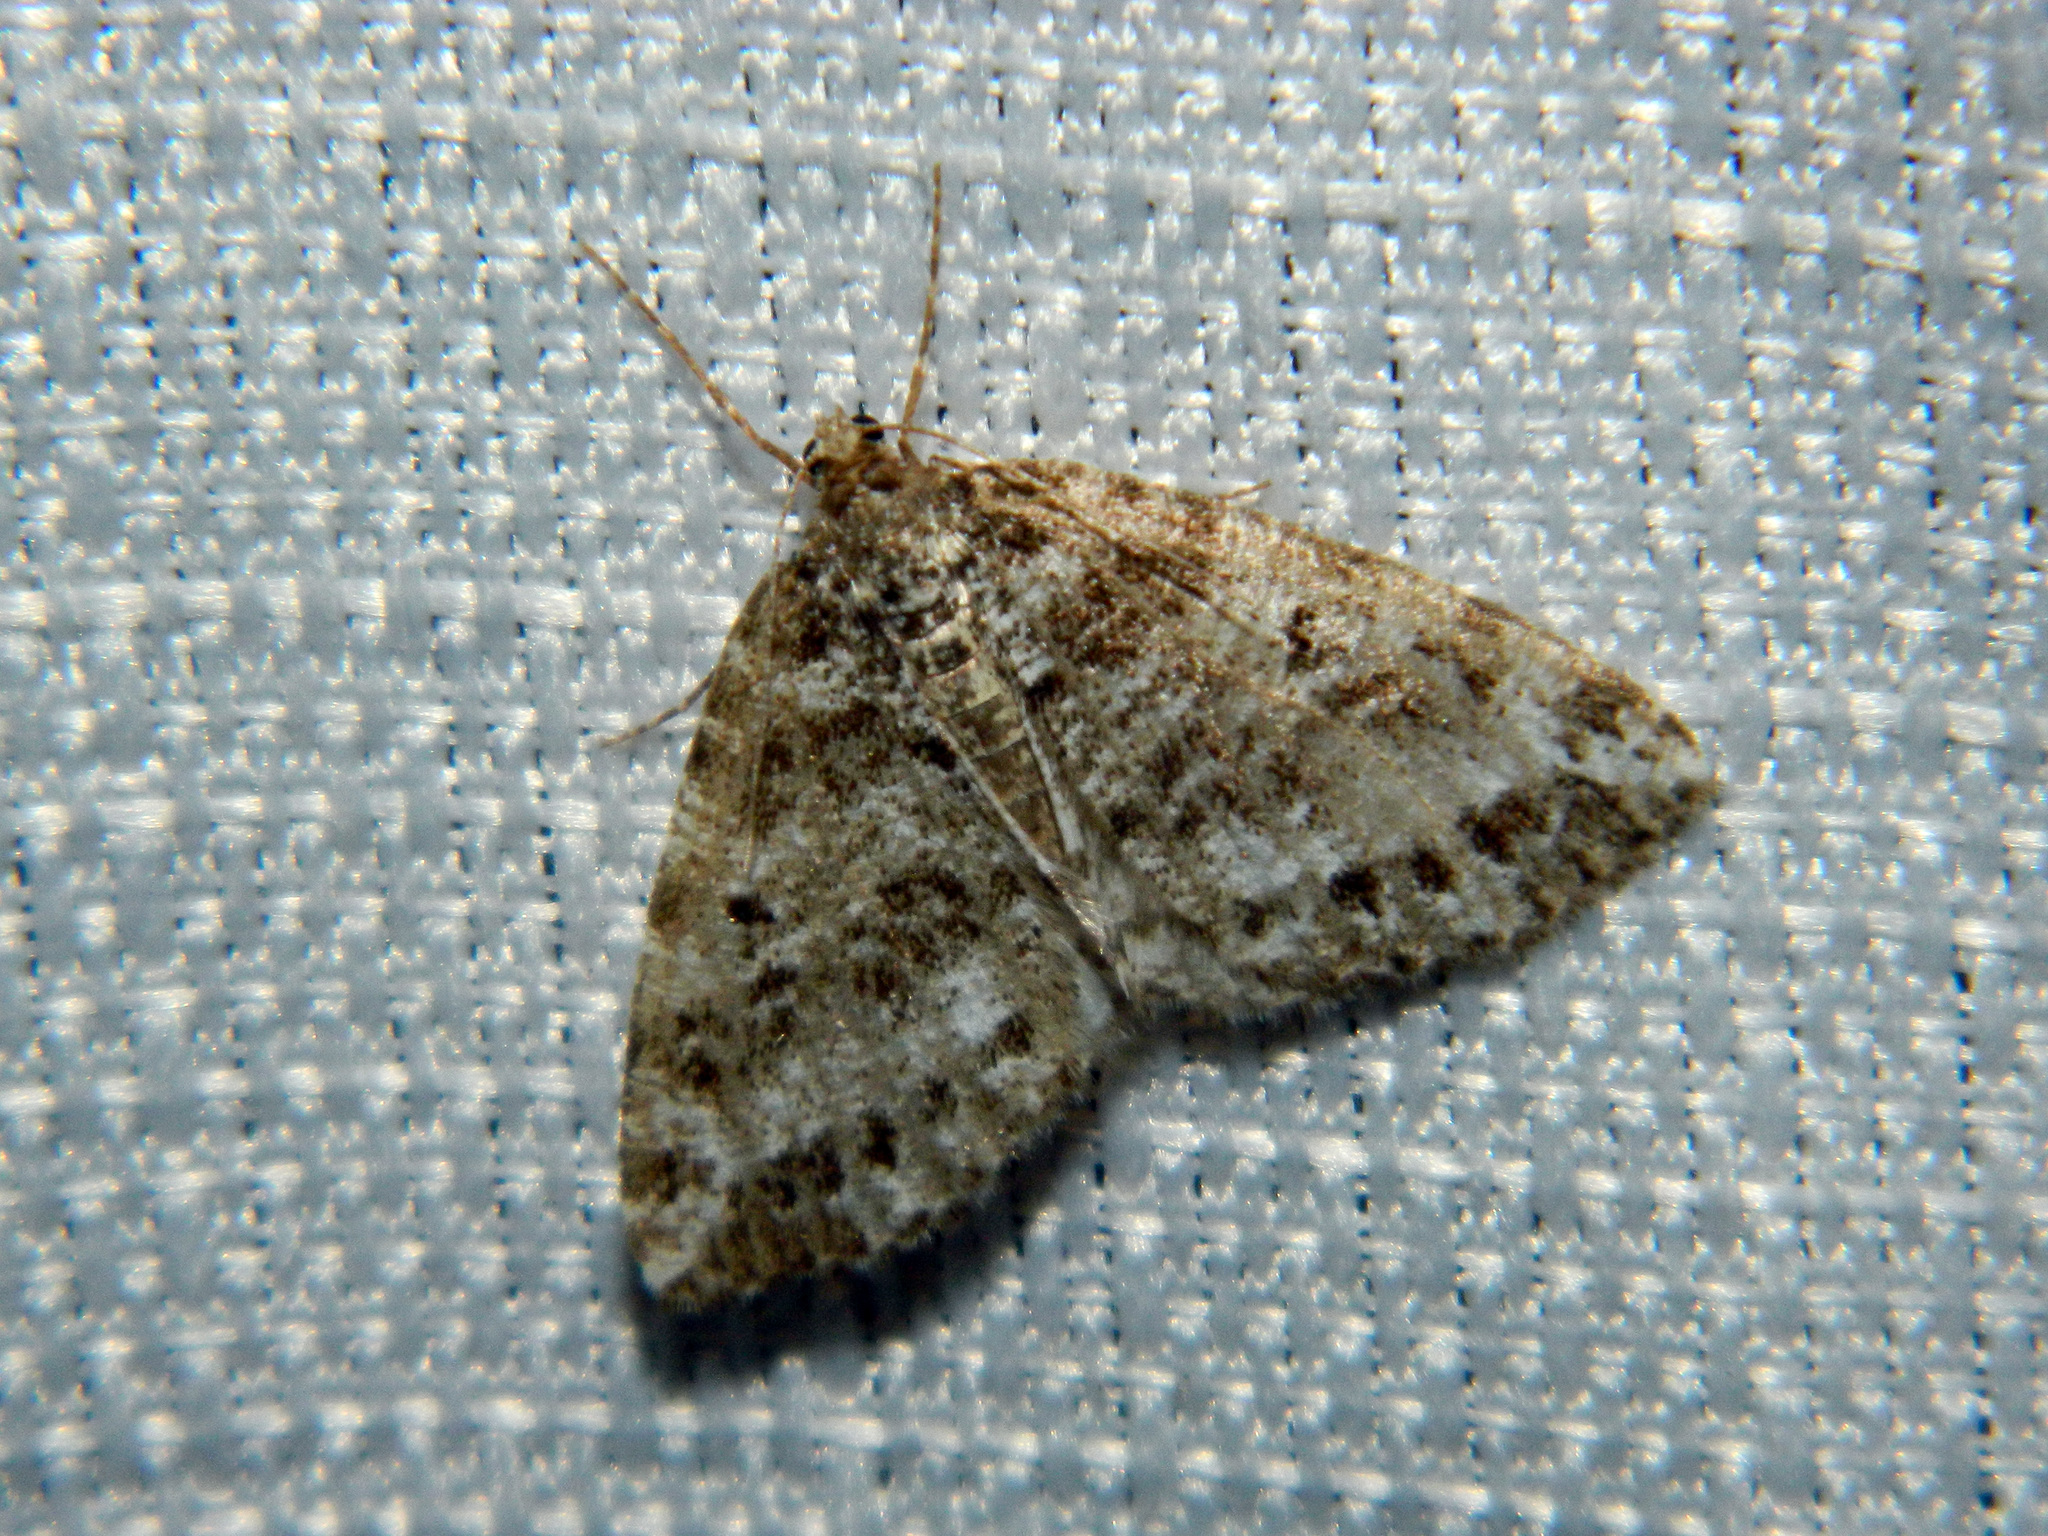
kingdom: Animalia
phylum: Arthropoda
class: Insecta
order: Lepidoptera
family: Geometridae
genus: Orthofidonia
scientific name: Orthofidonia exornata
